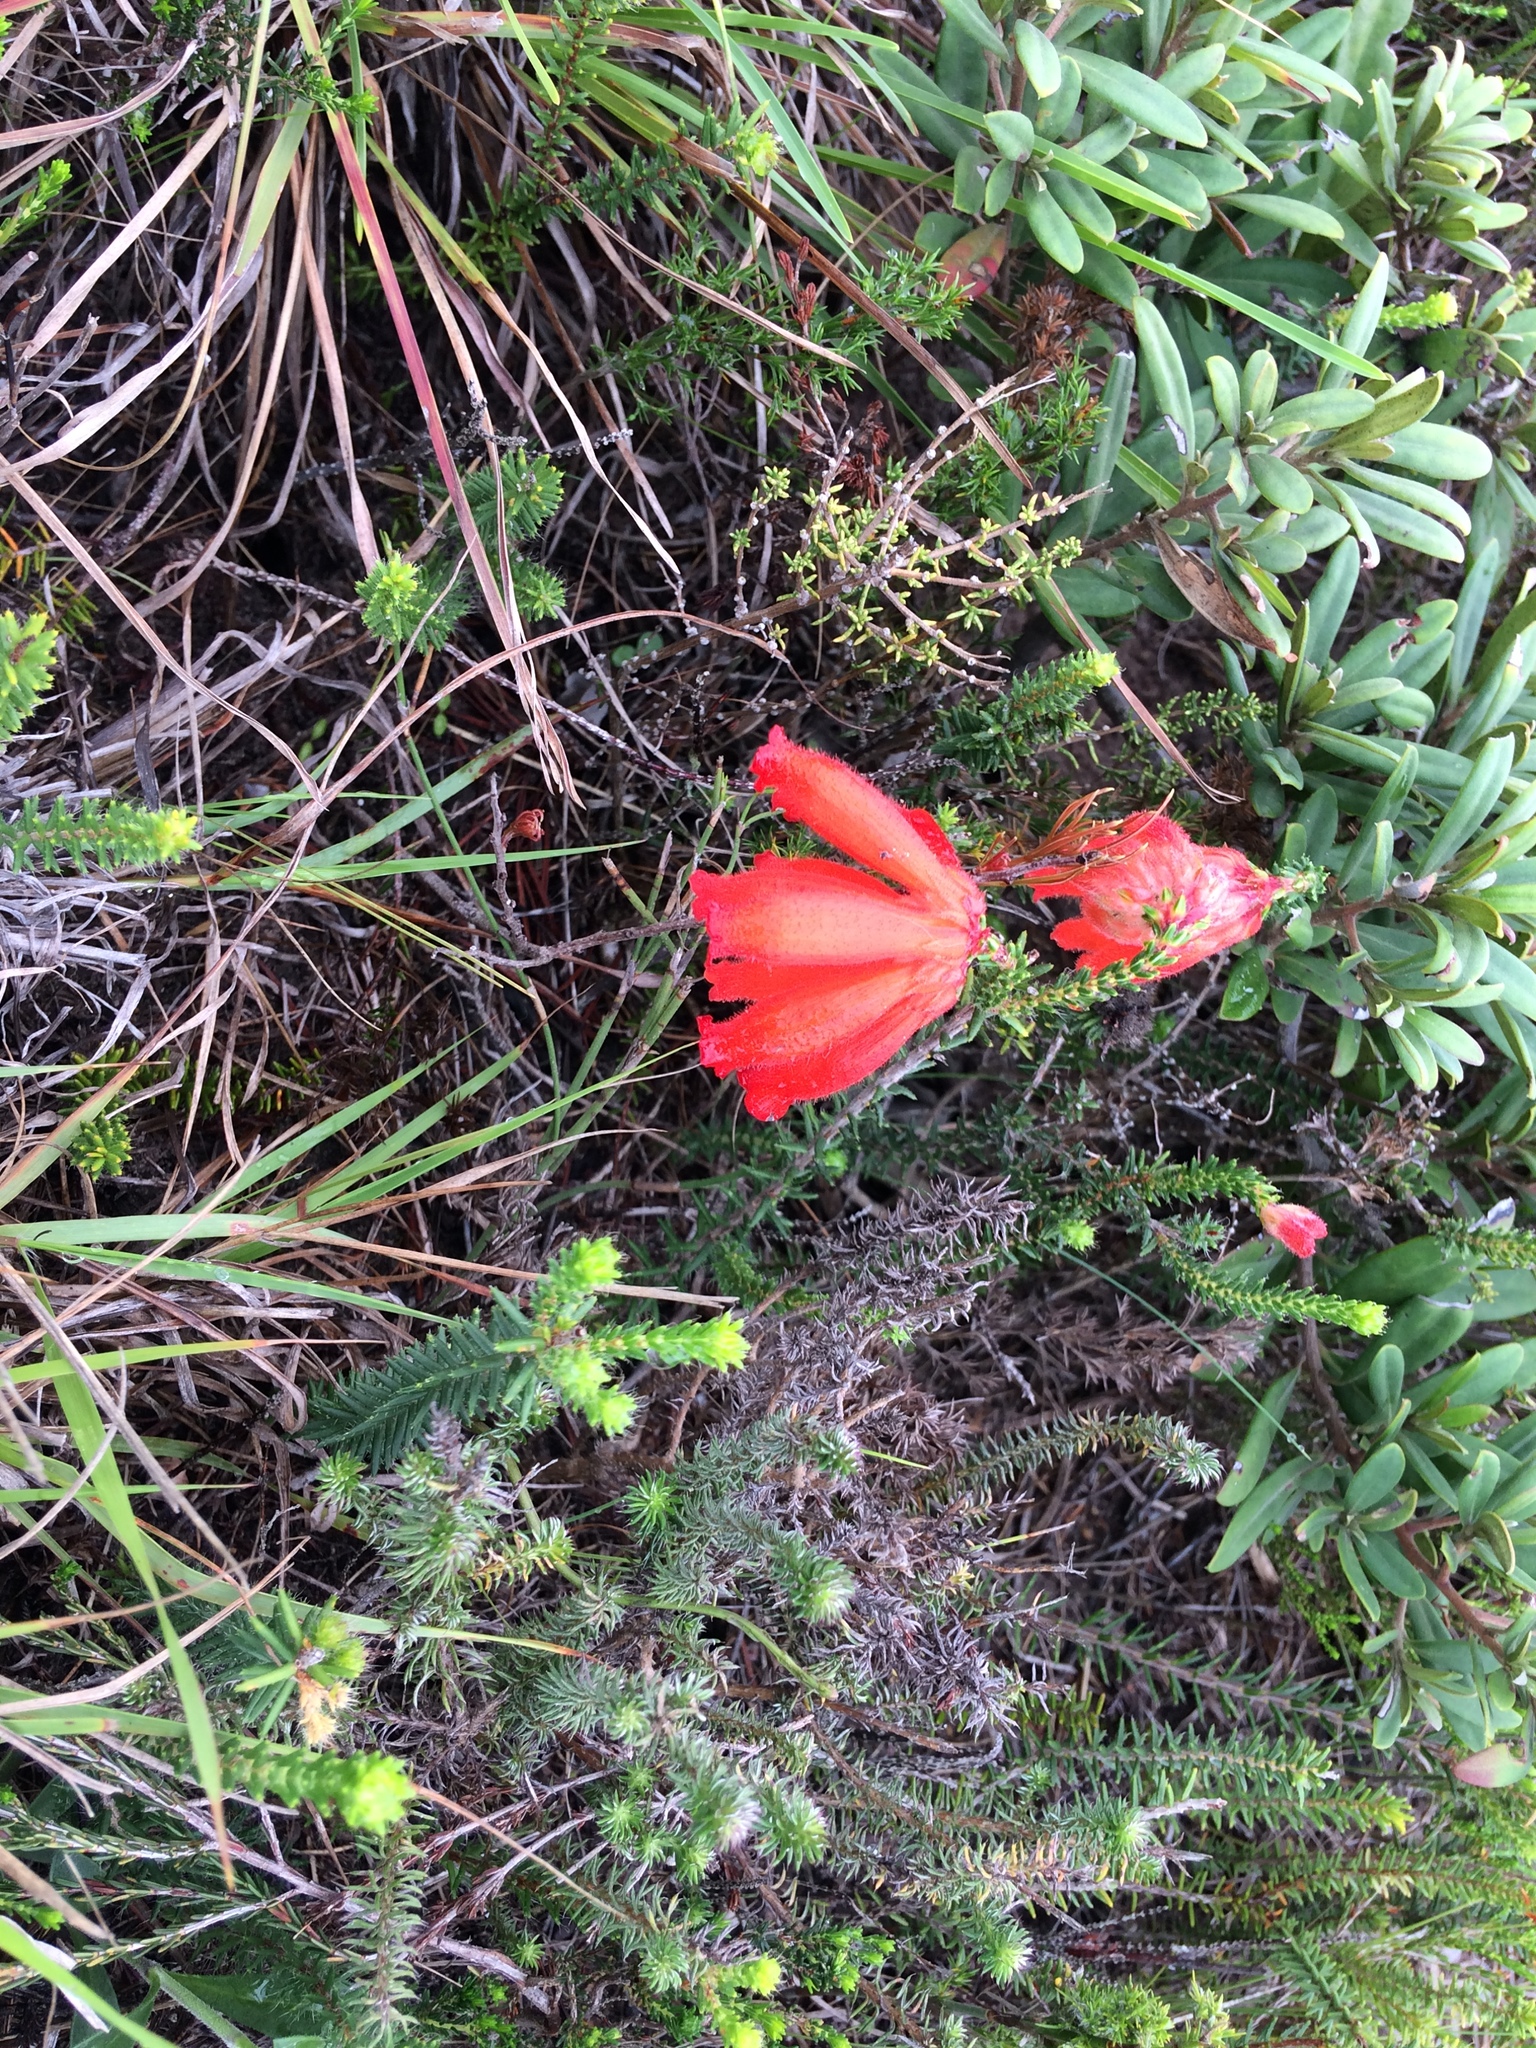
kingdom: Plantae
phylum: Tracheophyta
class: Magnoliopsida
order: Ericales
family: Ericaceae
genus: Erica
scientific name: Erica cerinthoides
